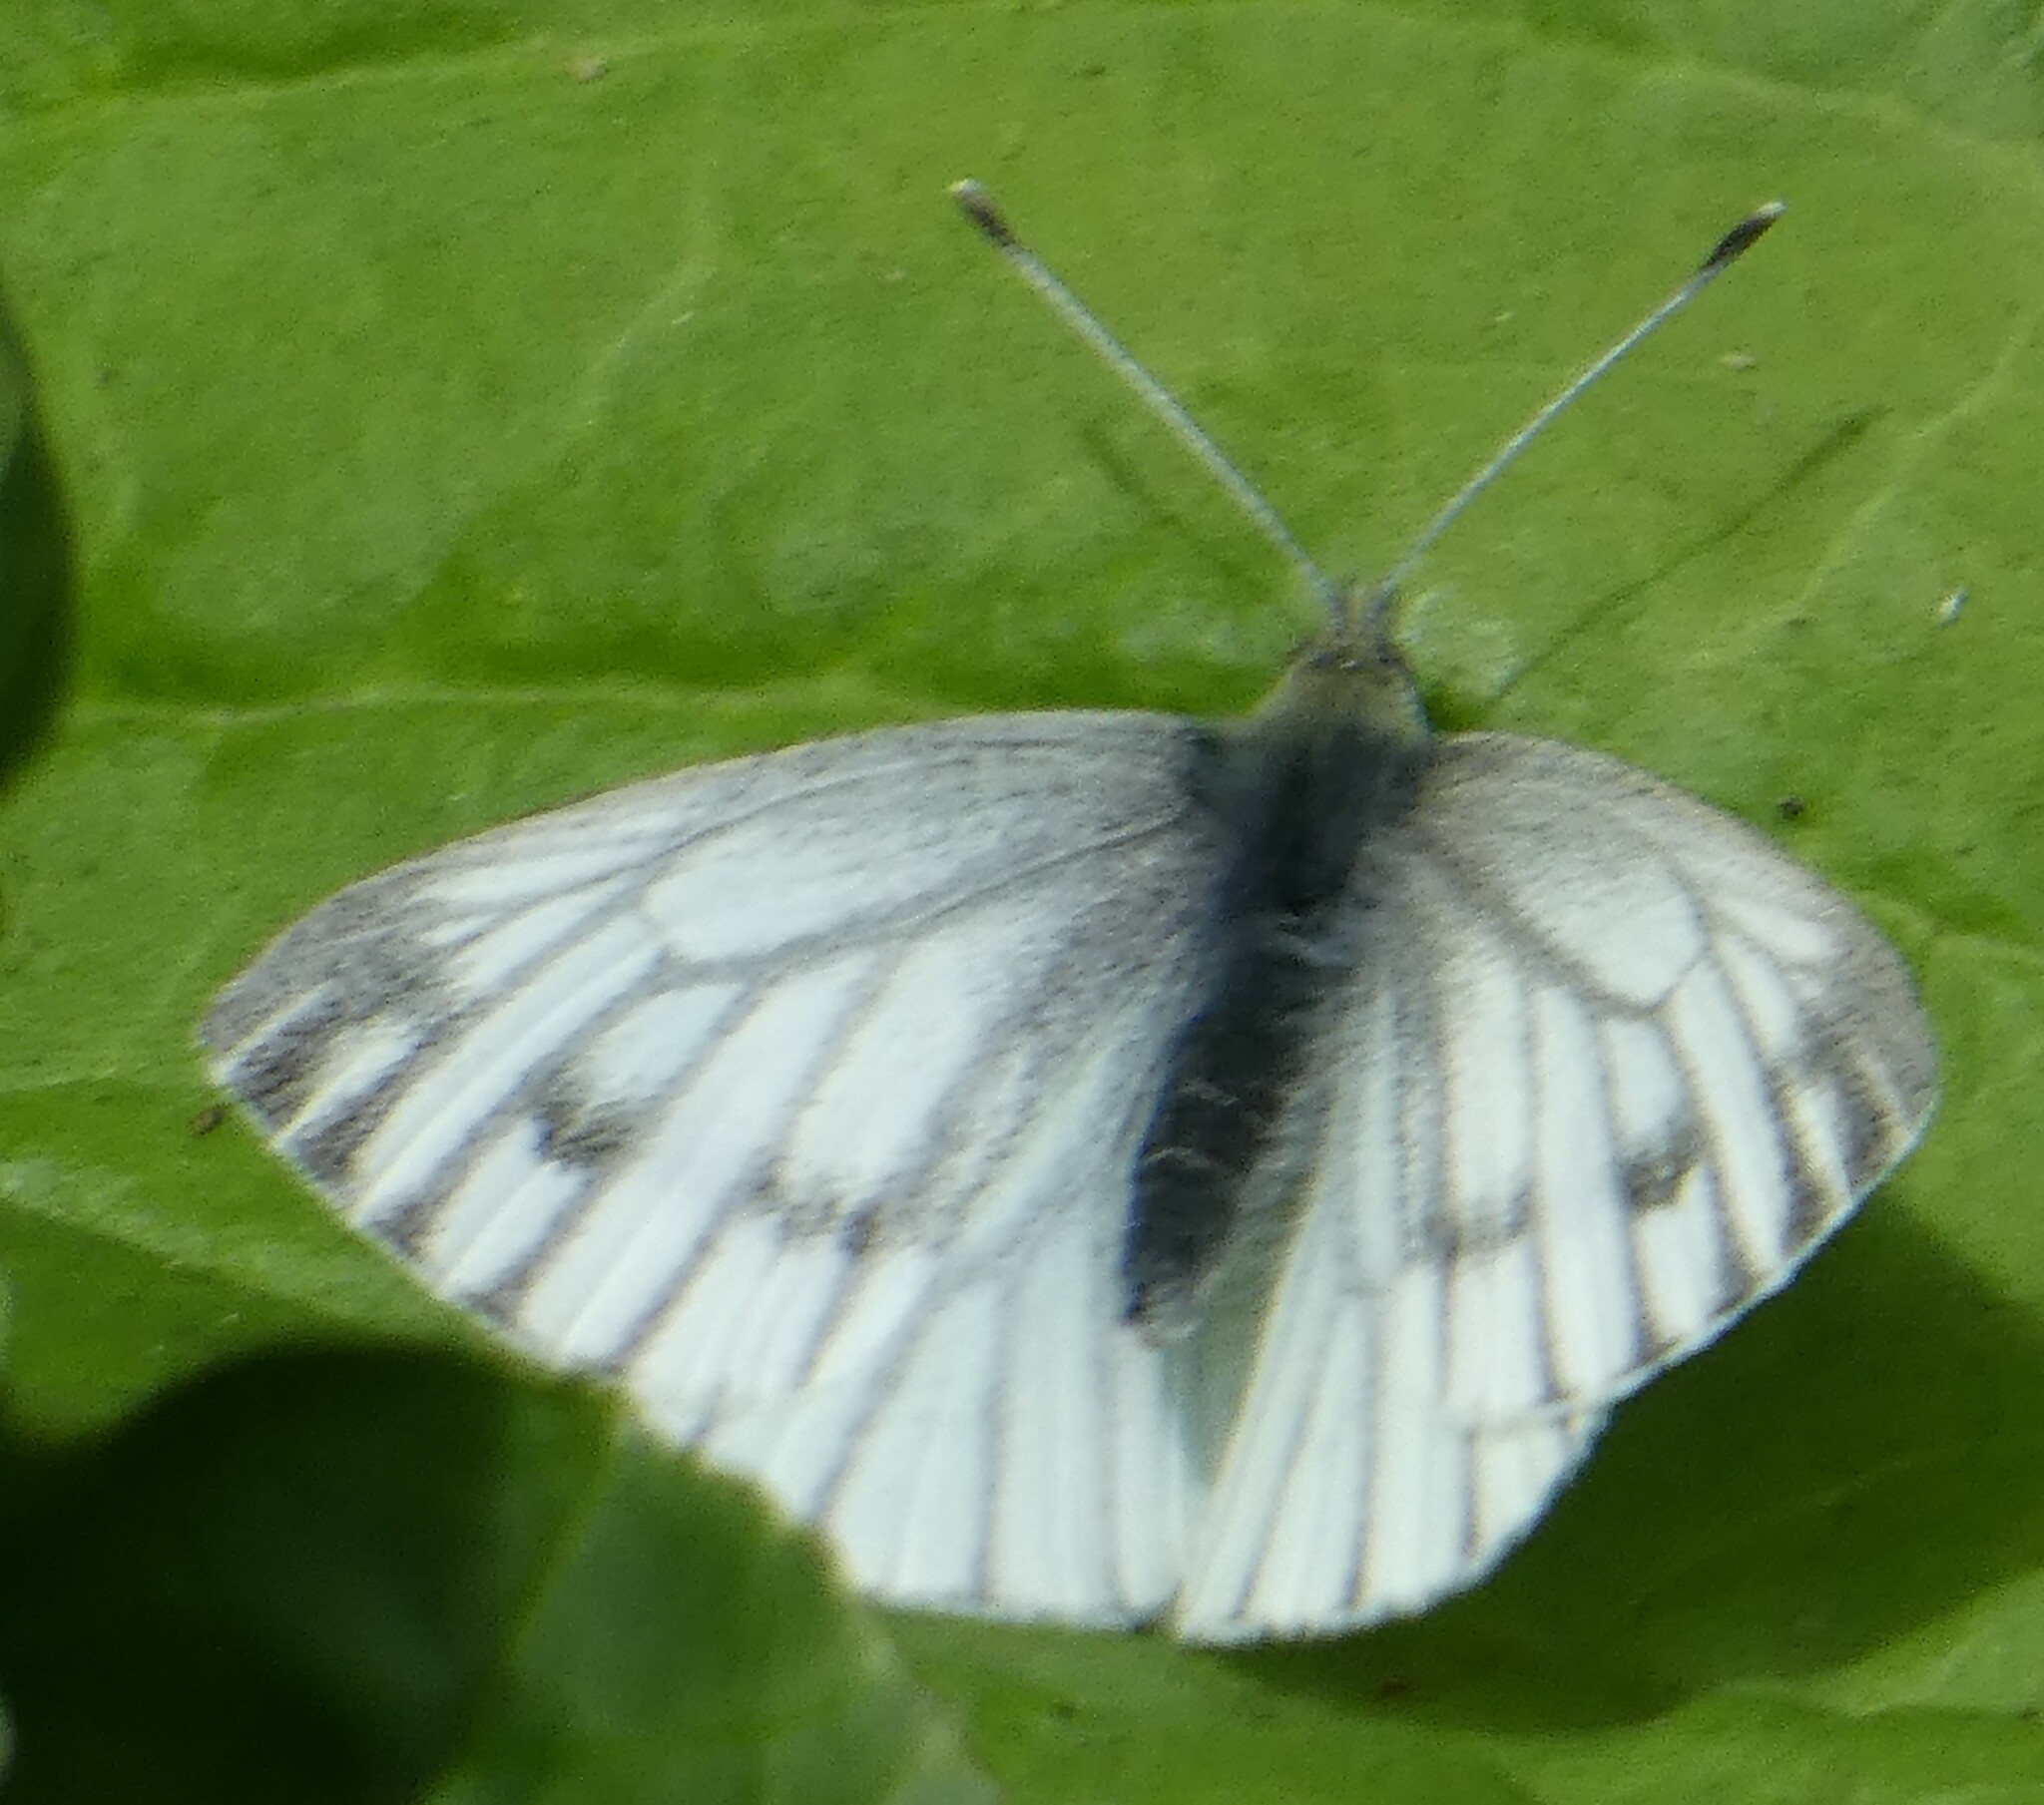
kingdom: Animalia
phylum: Arthropoda
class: Insecta
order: Lepidoptera
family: Pieridae
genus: Pieris
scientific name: Pieris napi
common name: Green-veined white
